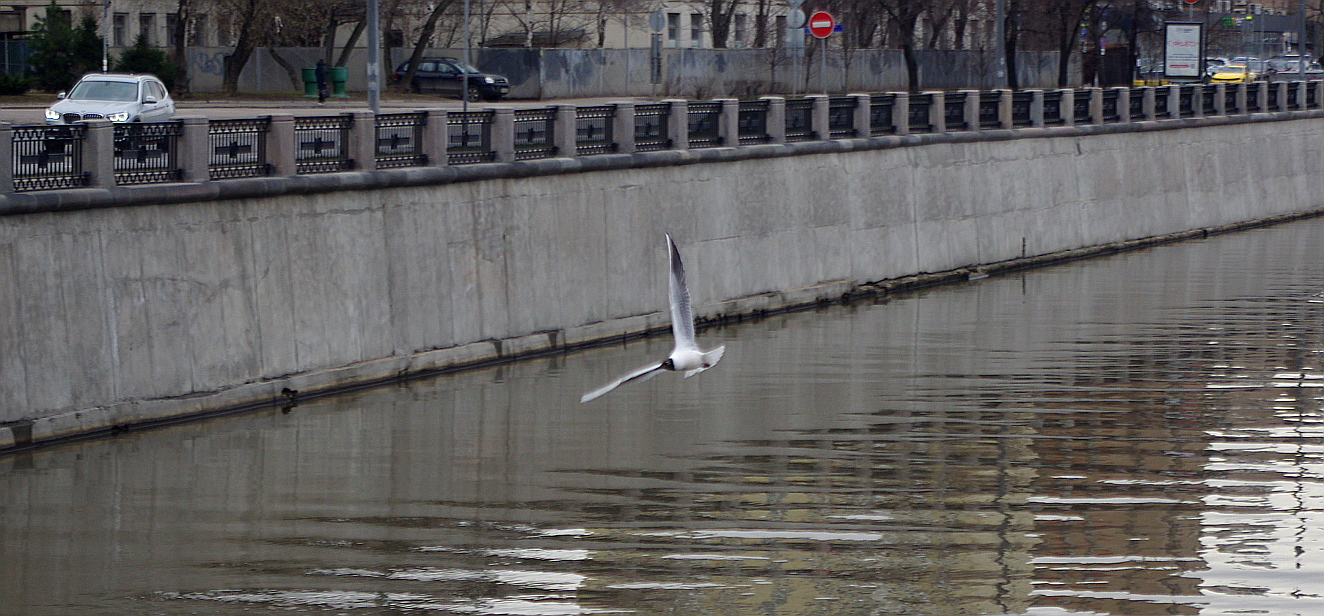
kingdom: Animalia
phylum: Chordata
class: Aves
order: Charadriiformes
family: Laridae
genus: Chroicocephalus
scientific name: Chroicocephalus ridibundus
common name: Black-headed gull
